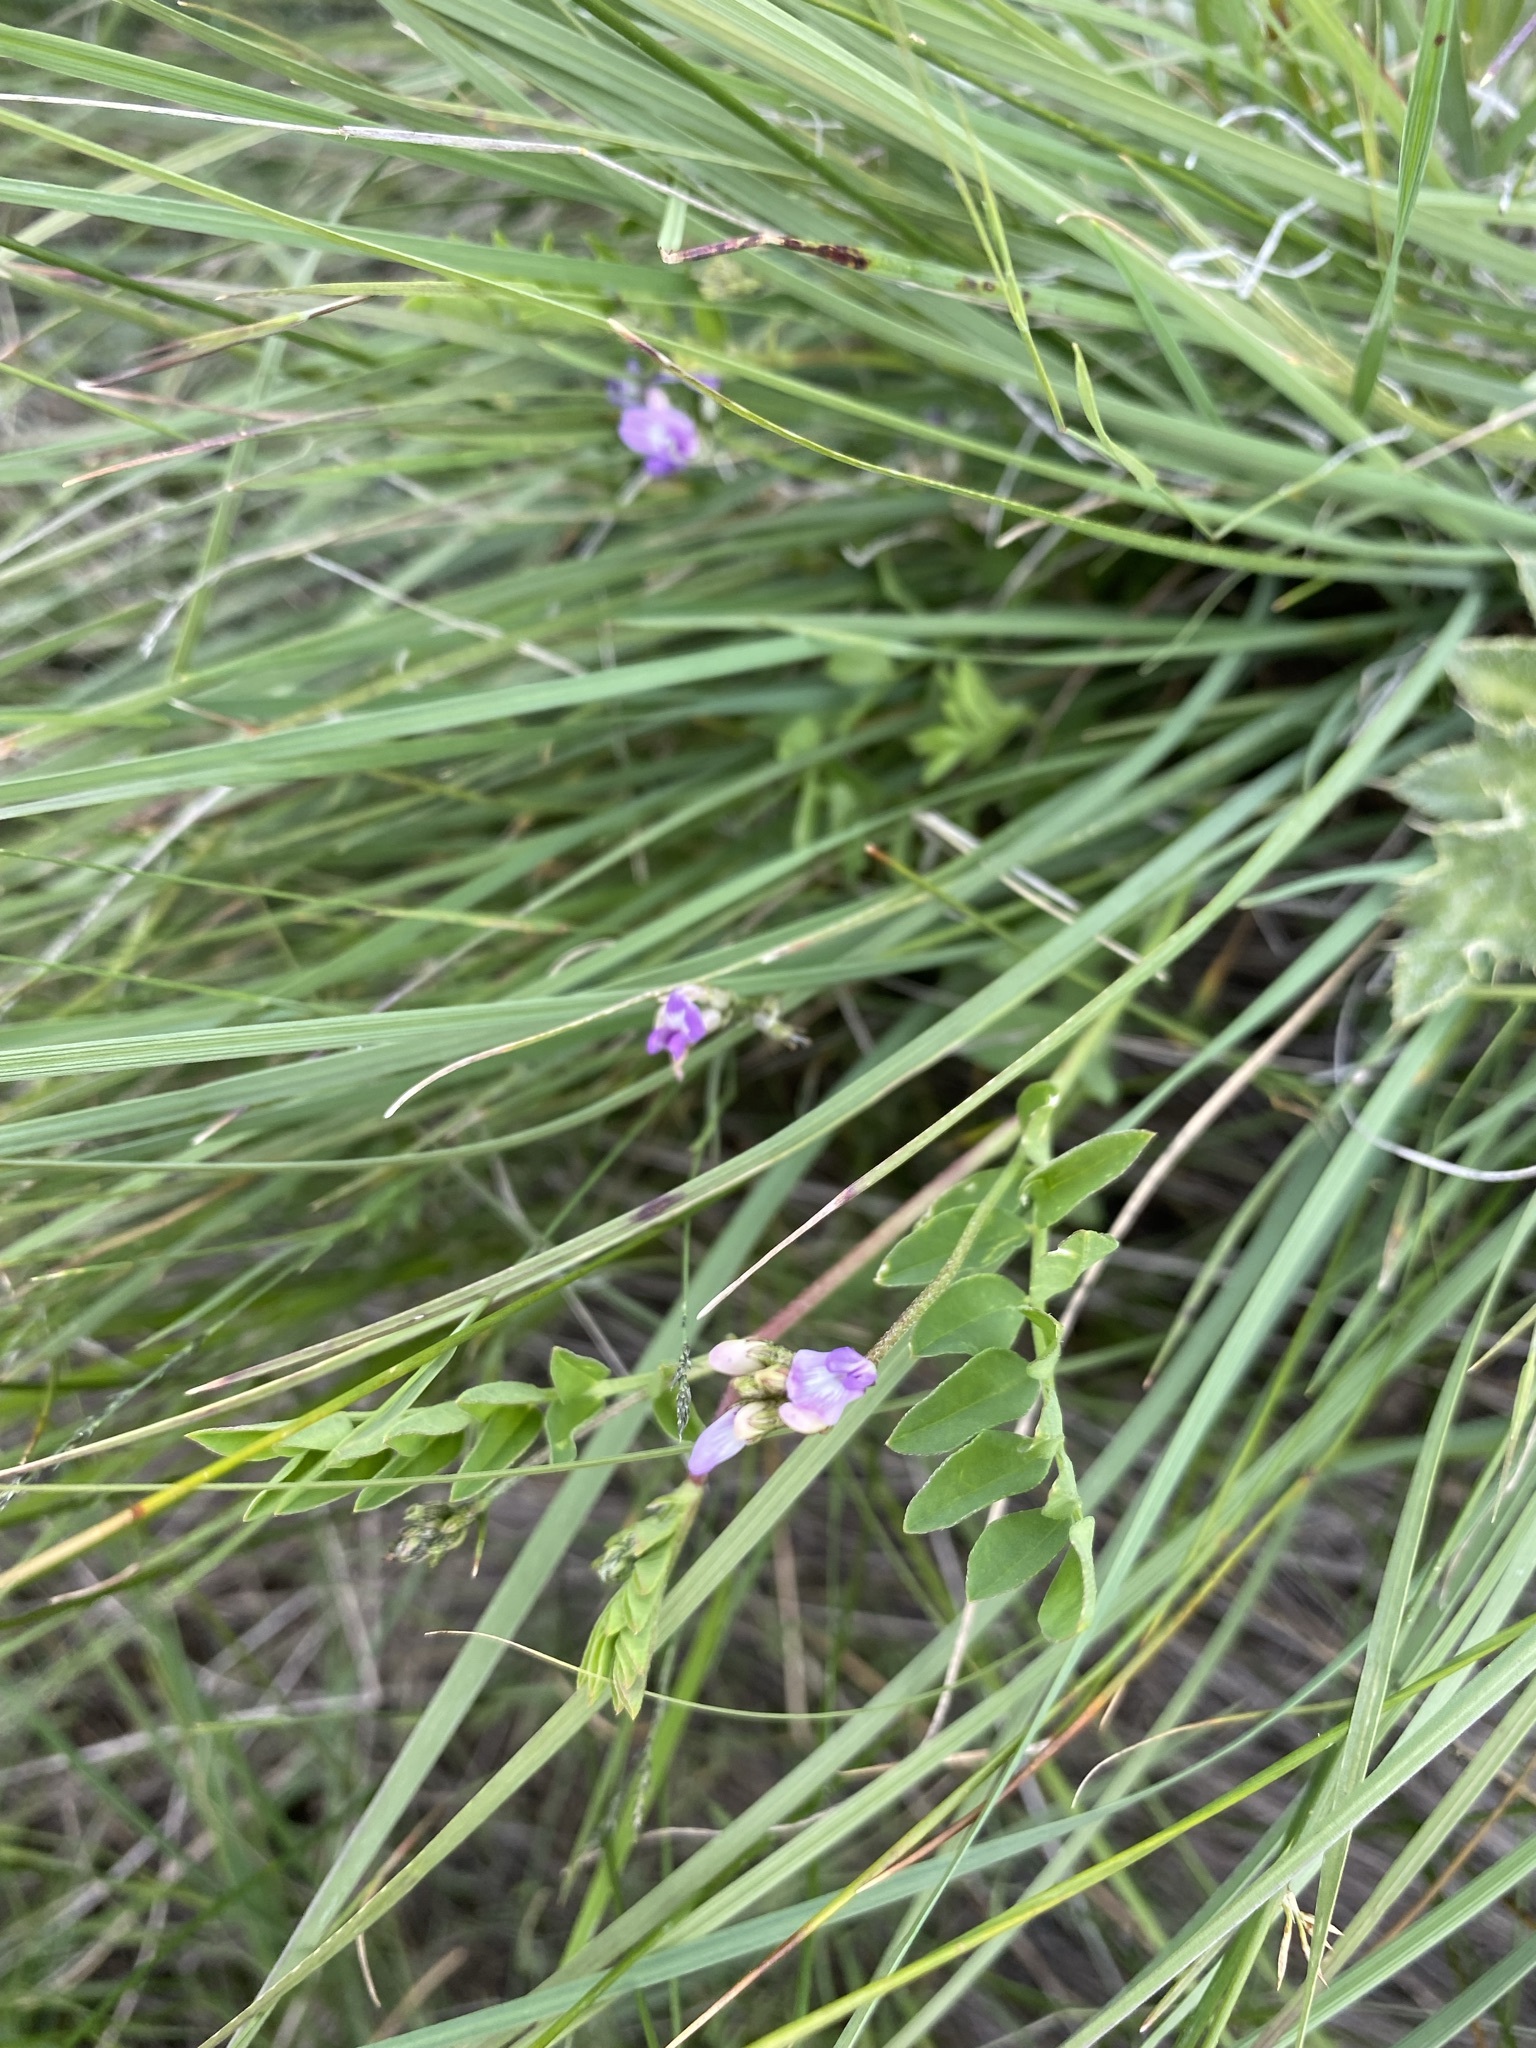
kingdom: Plantae
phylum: Tracheophyta
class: Magnoliopsida
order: Fabales
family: Fabaceae
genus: Astragalus
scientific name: Astragalus bodinii
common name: Bodin's milk-vetch
